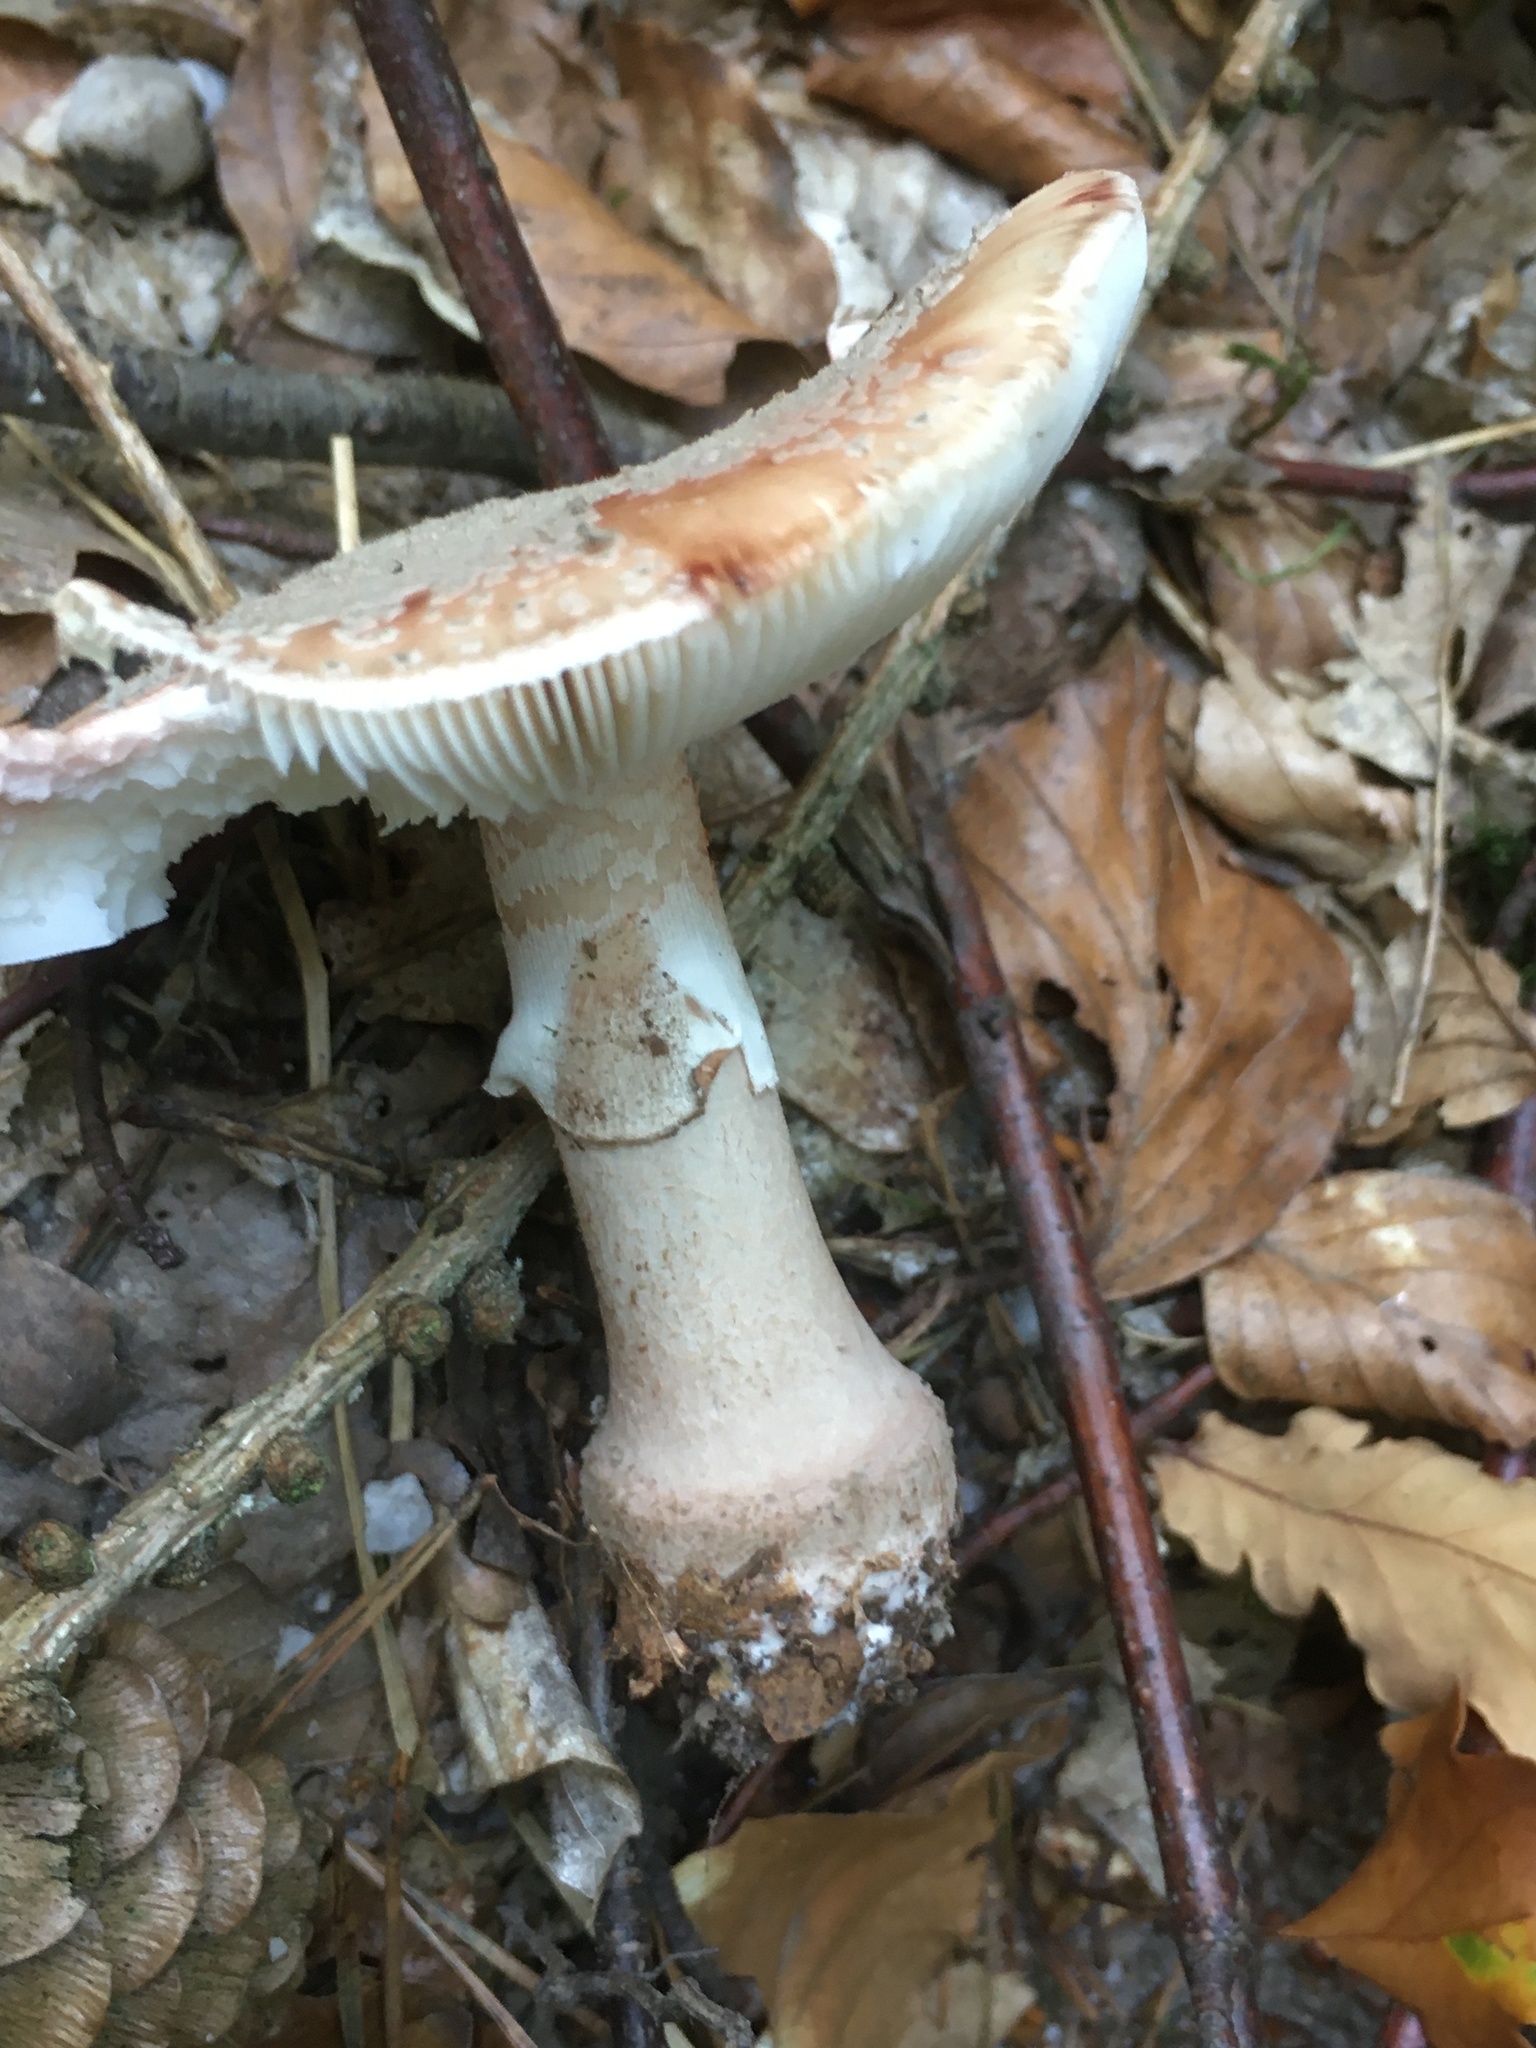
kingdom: Fungi
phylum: Basidiomycota
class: Agaricomycetes
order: Agaricales
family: Amanitaceae
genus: Amanita
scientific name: Amanita rubescens
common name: Blusher
